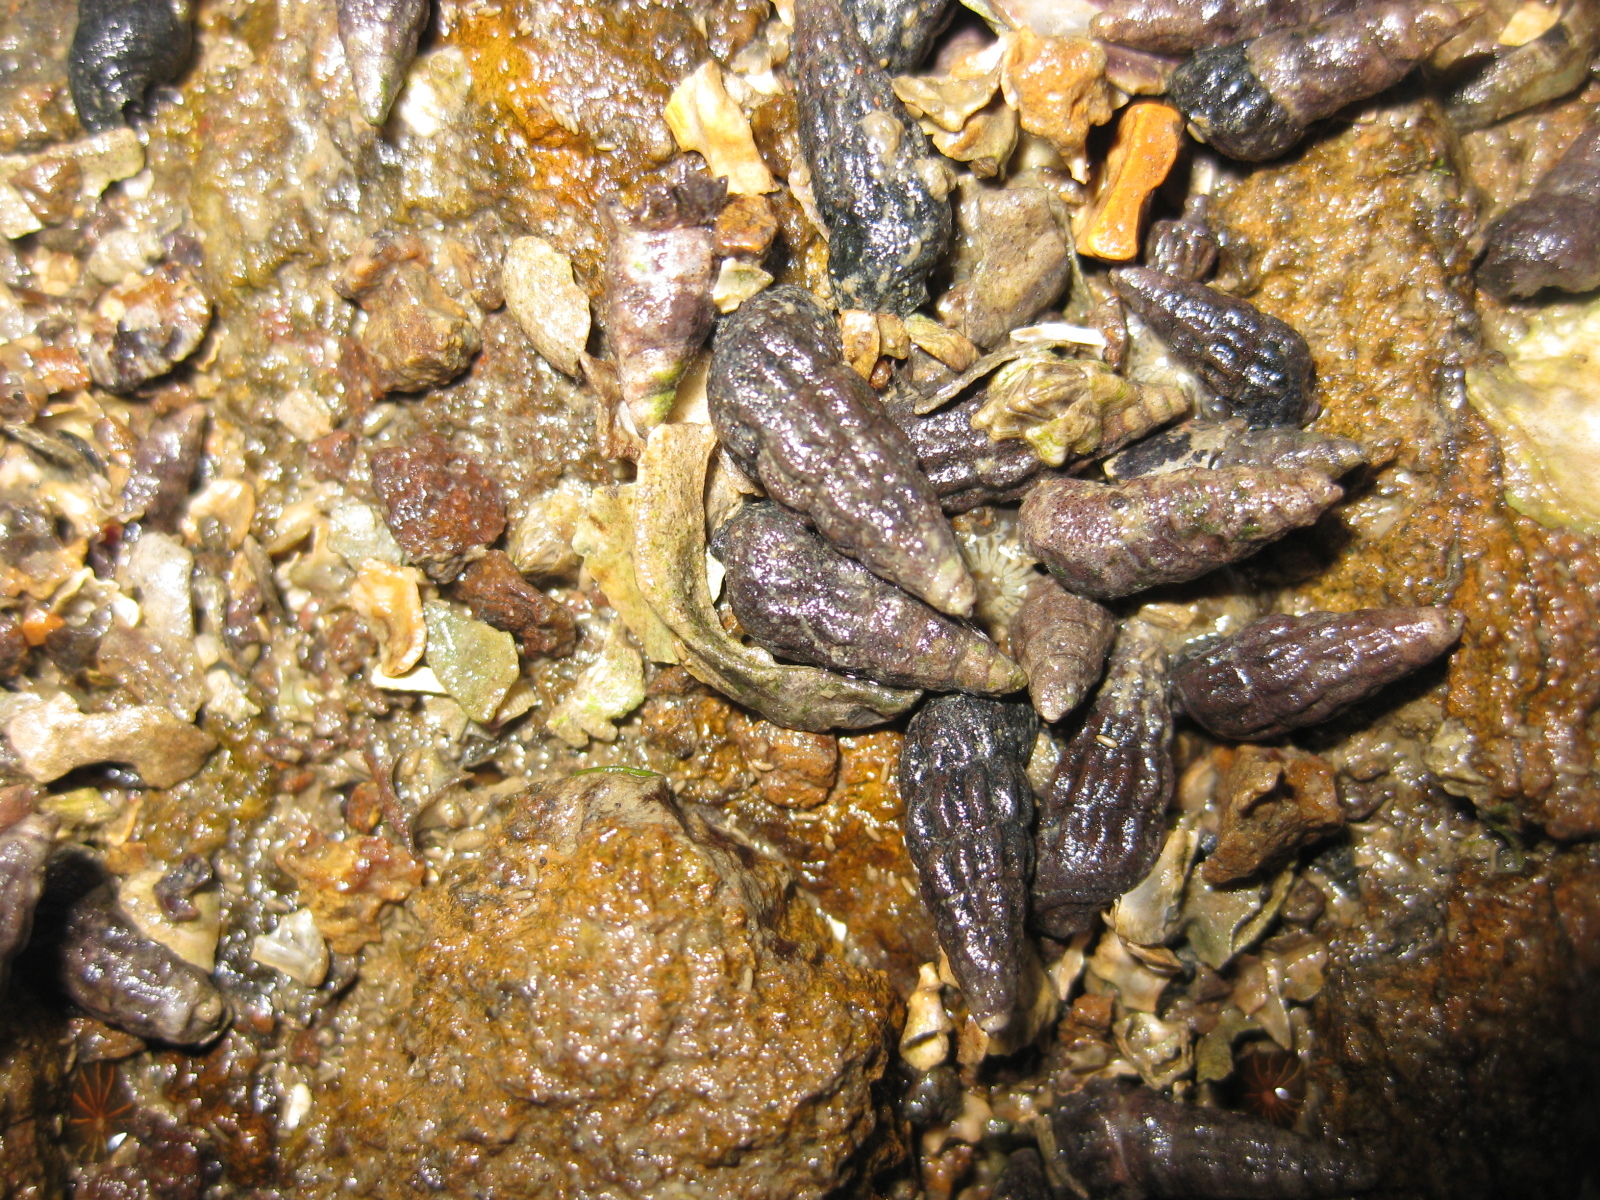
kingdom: Animalia
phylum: Mollusca
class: Gastropoda
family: Batillariidae
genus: Zeacumantus
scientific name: Zeacumantus subcarinatus
